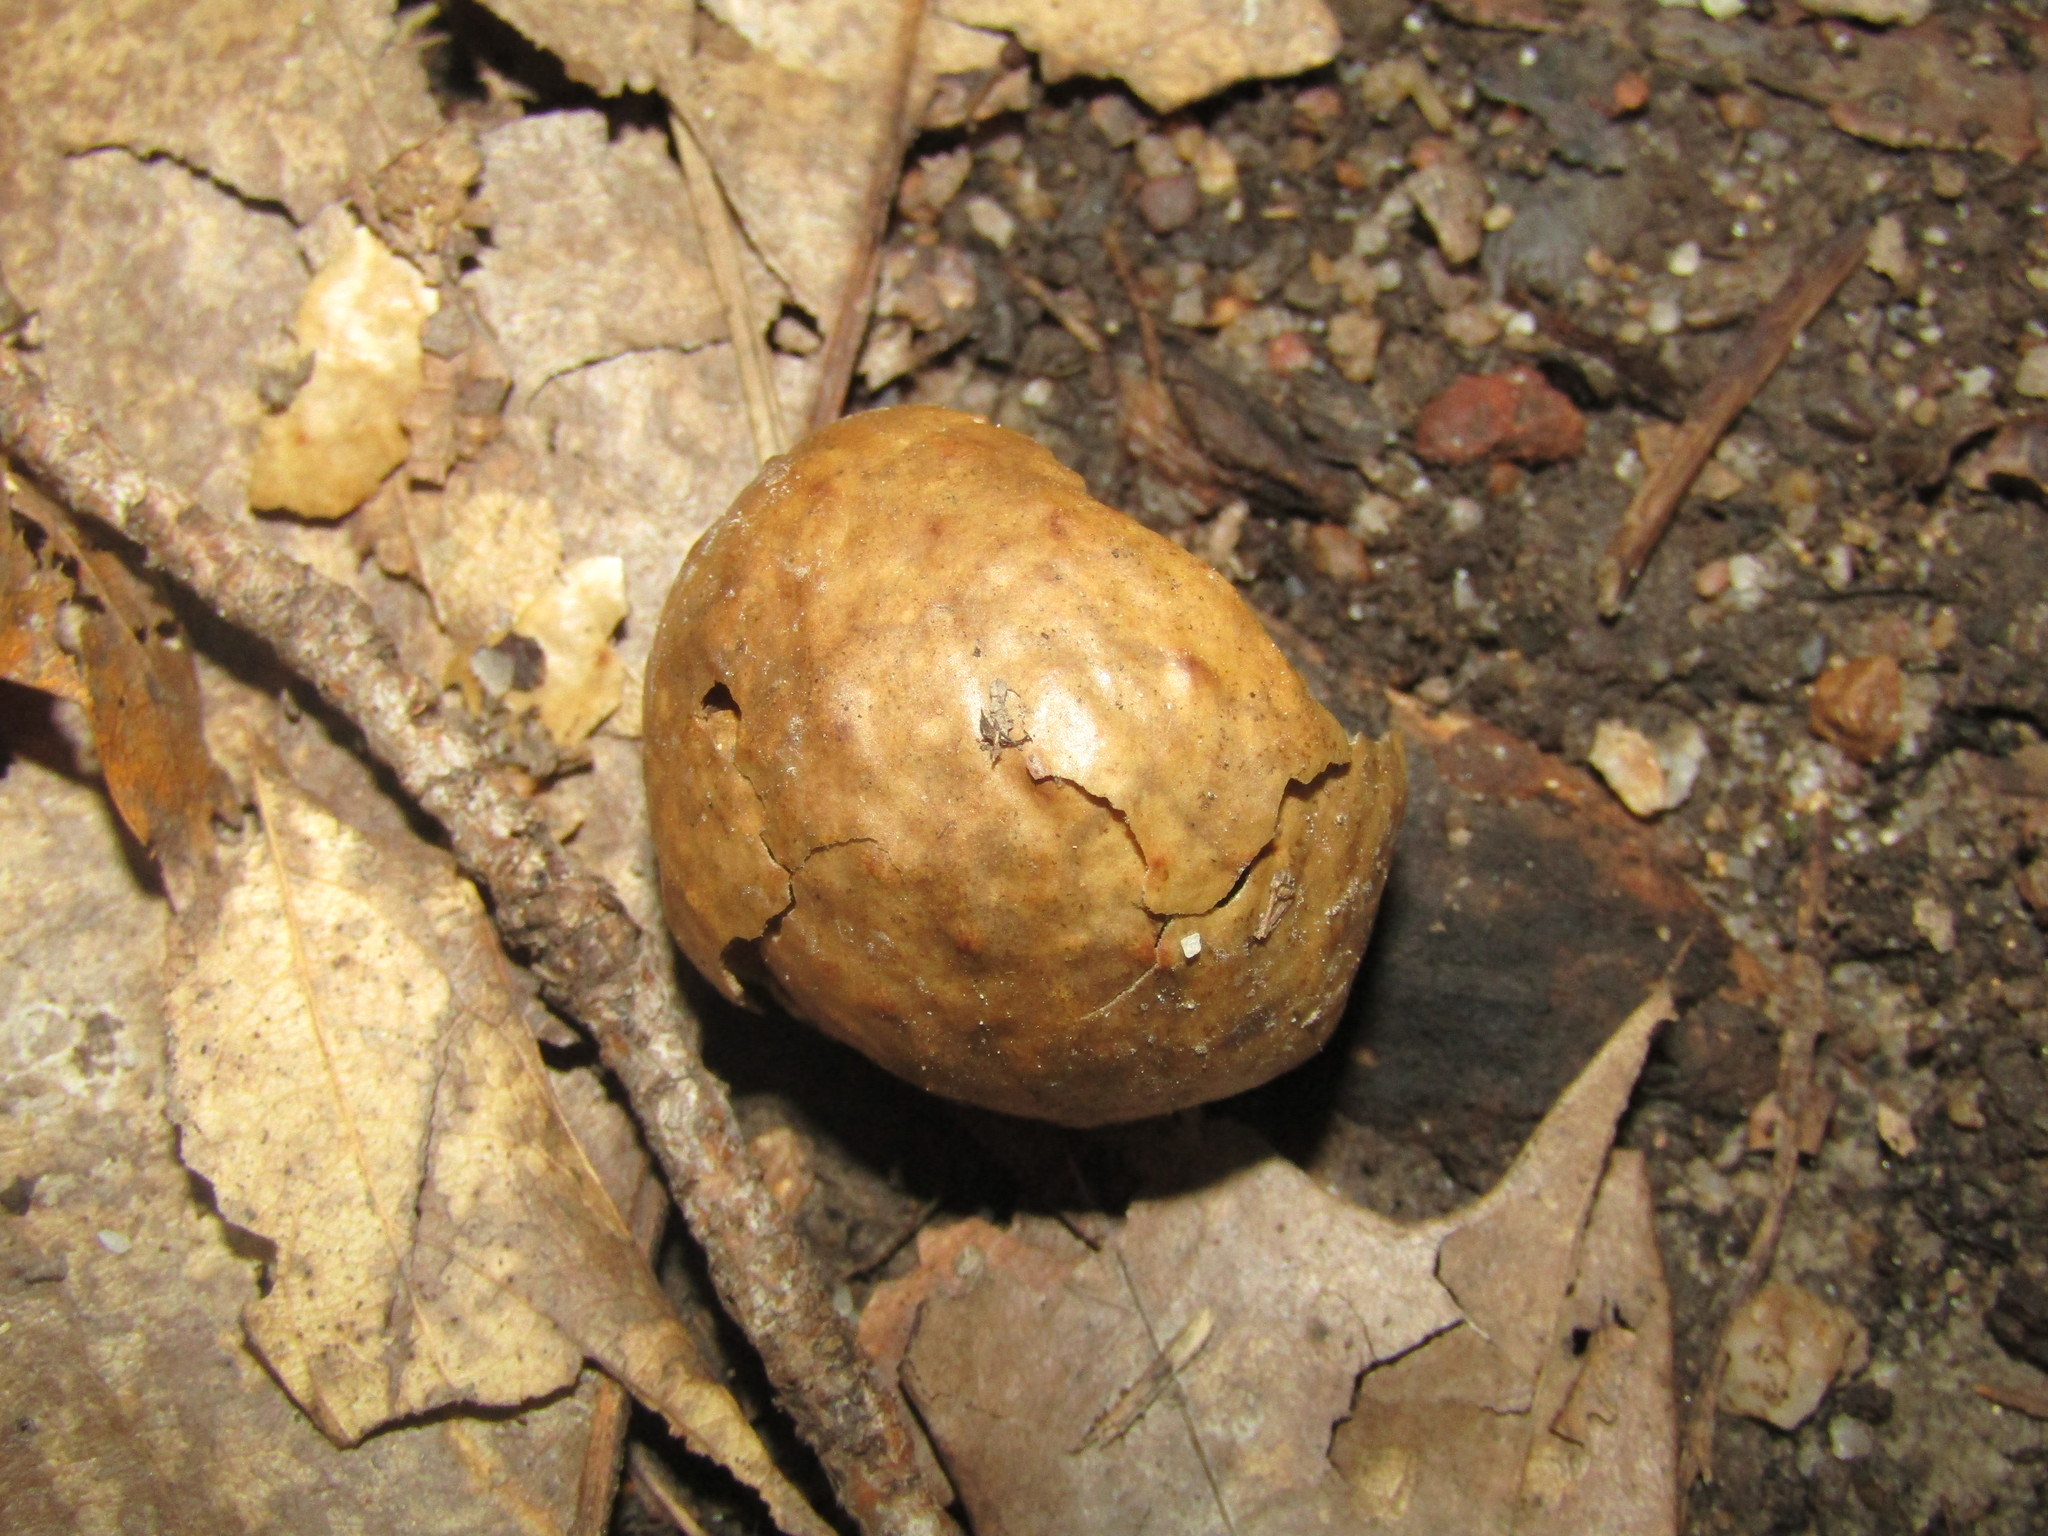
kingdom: Animalia
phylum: Arthropoda
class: Insecta
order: Hymenoptera
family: Cynipidae
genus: Amphibolips
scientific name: Amphibolips
